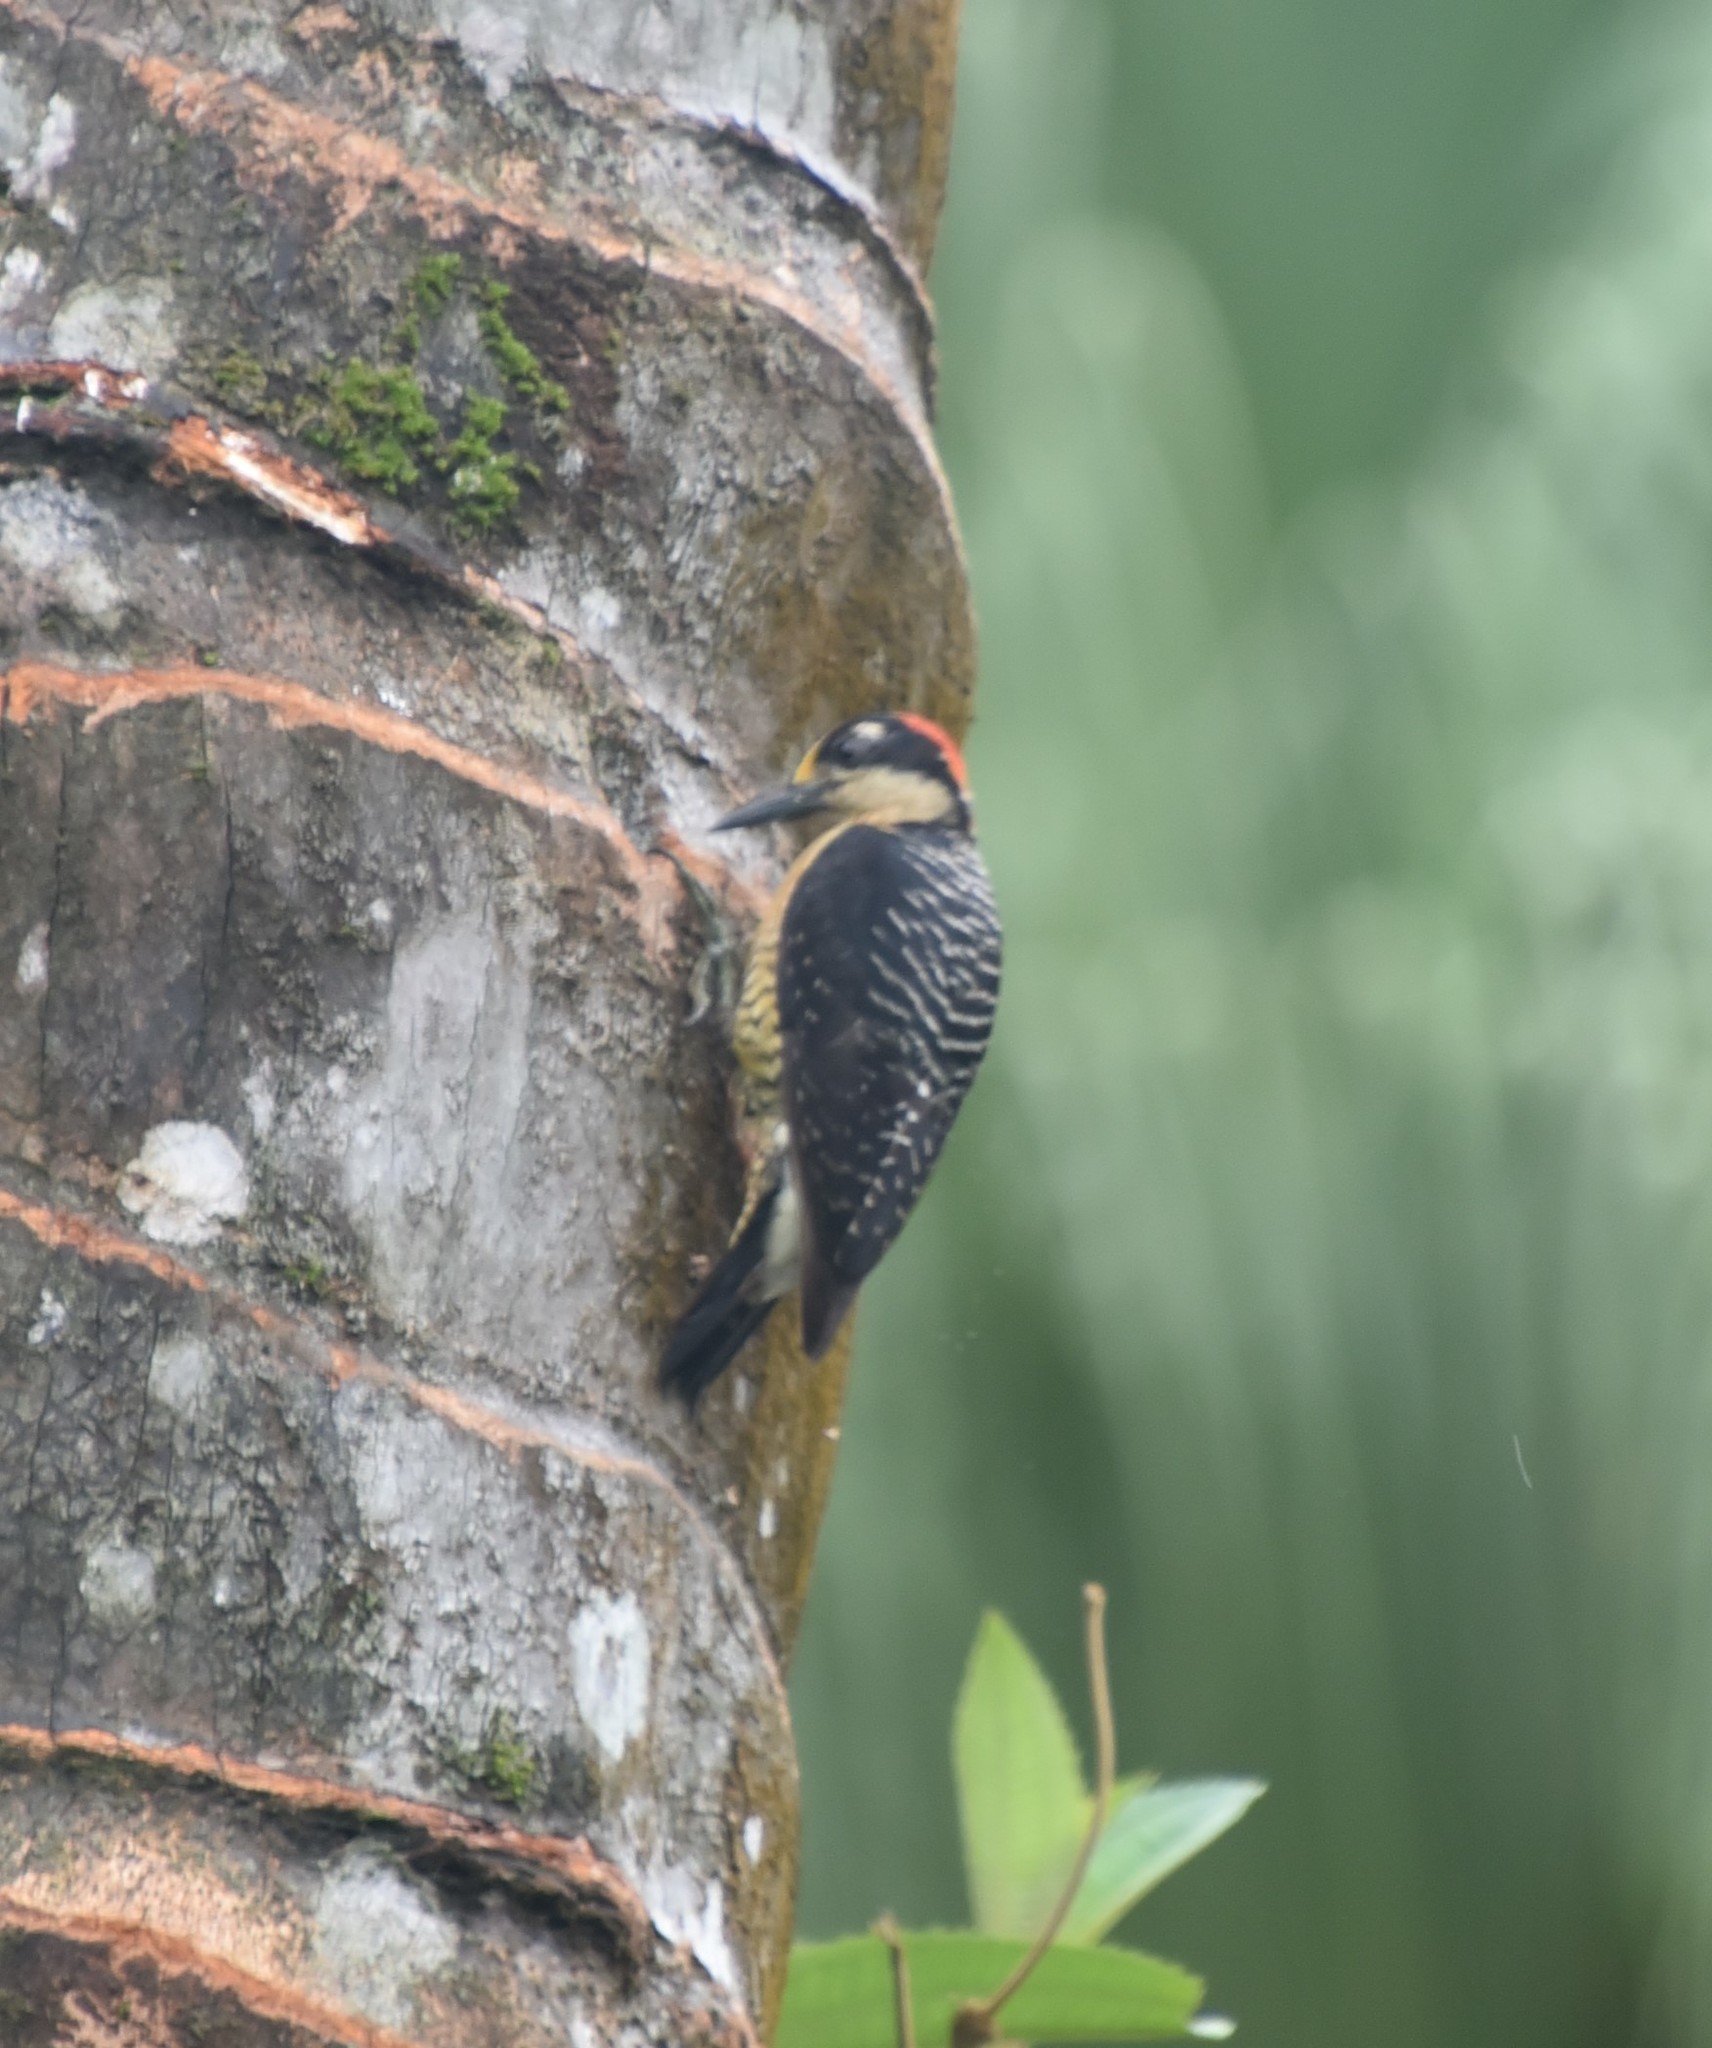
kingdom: Animalia
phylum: Chordata
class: Aves
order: Piciformes
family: Picidae
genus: Melanerpes
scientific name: Melanerpes pucherani
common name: Black-cheeked woodpecker
